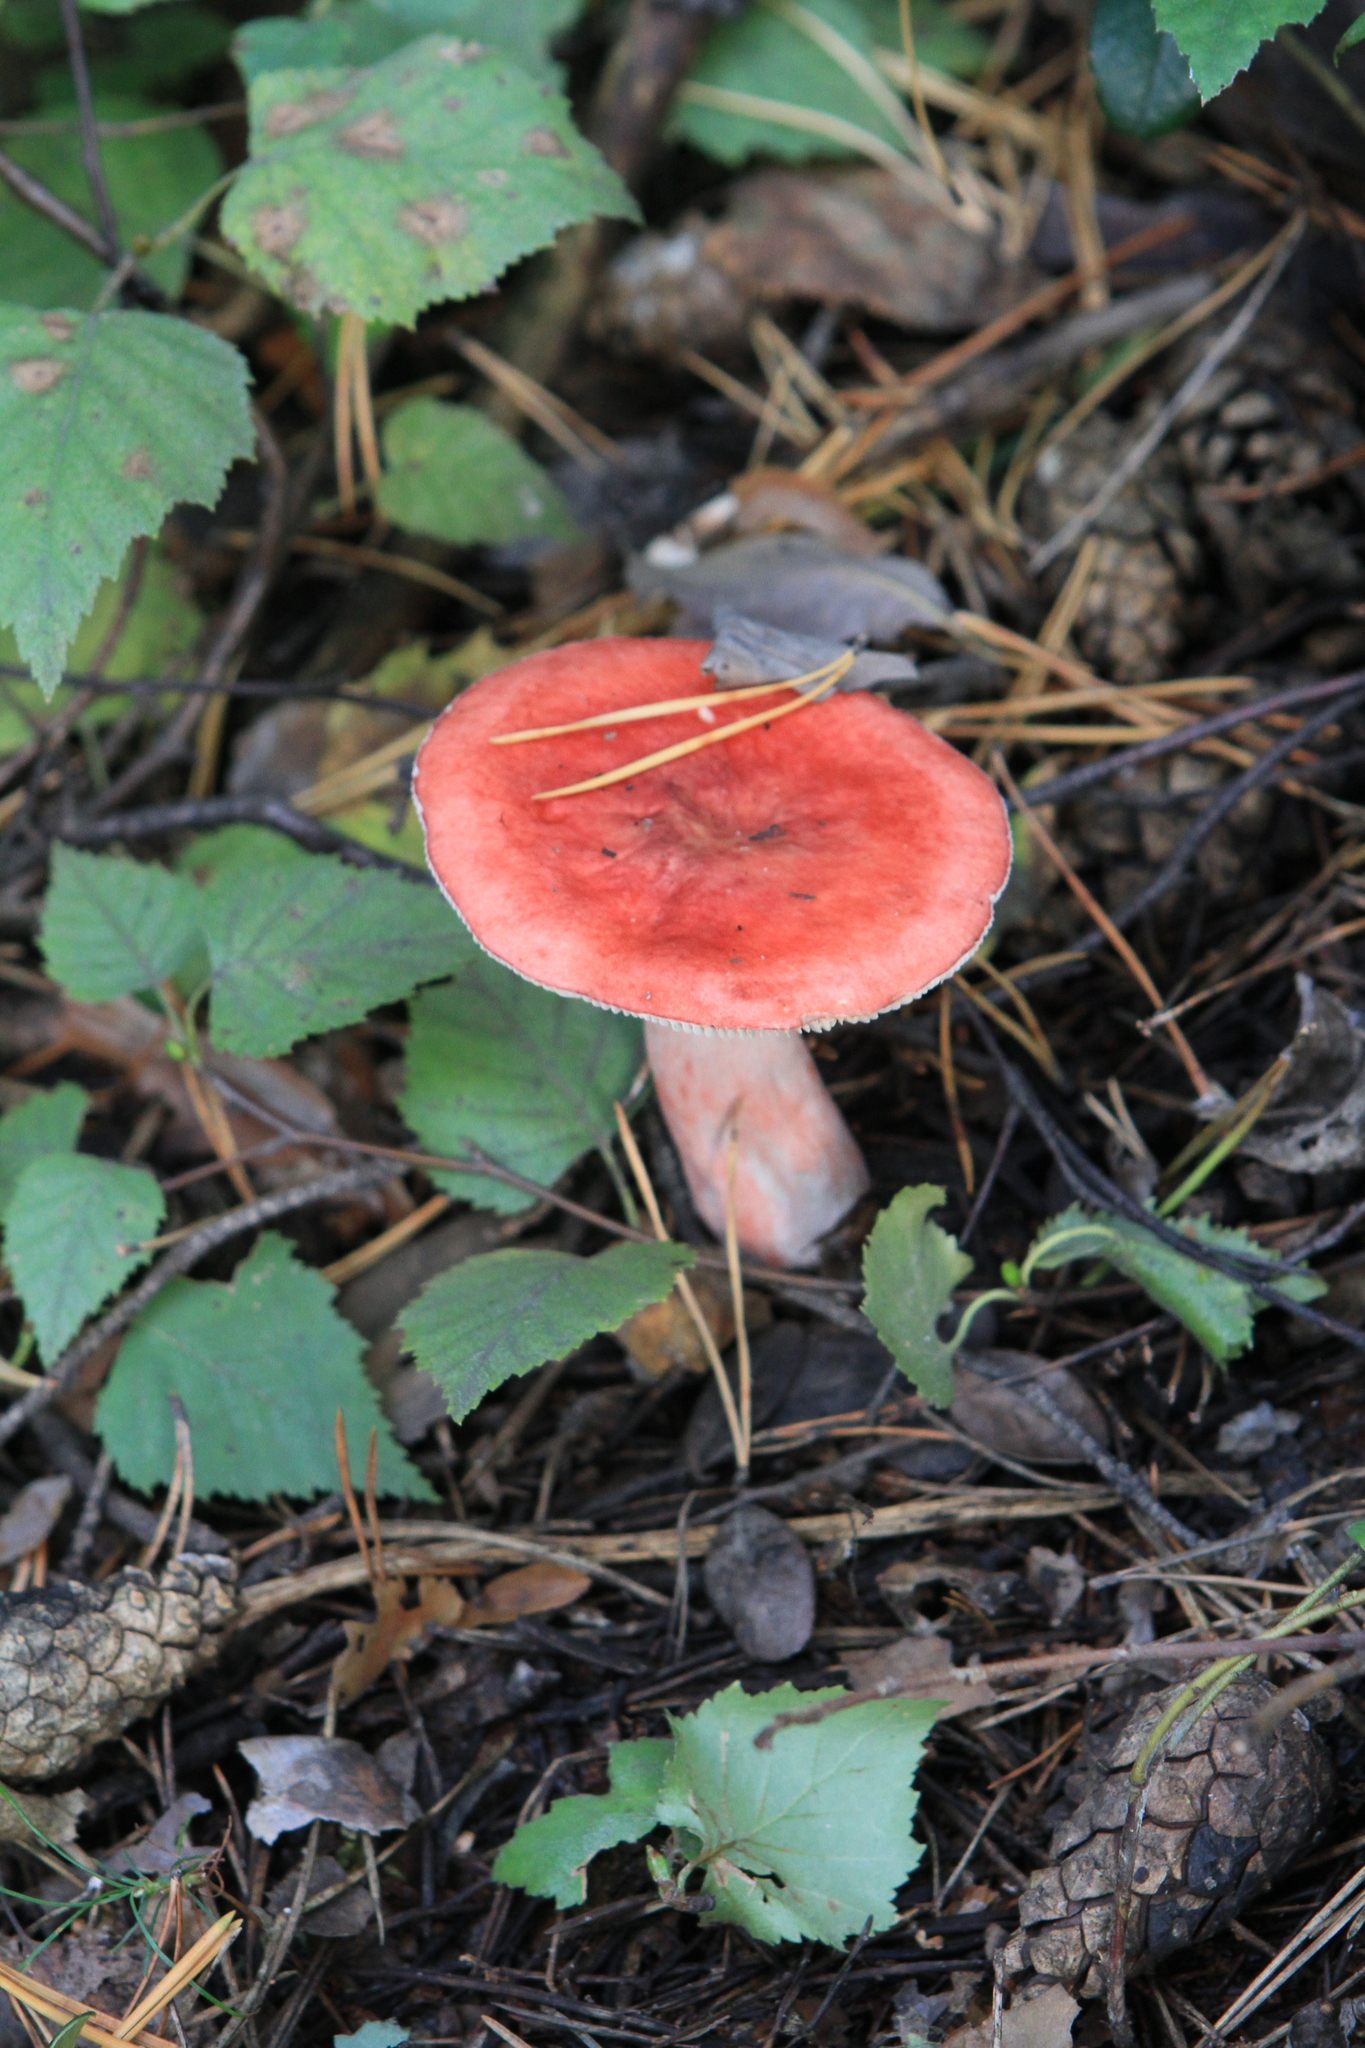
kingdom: Plantae
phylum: Tracheophyta
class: Magnoliopsida
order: Fagales
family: Betulaceae
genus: Betula
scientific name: Betula pendula
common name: Silver birch
